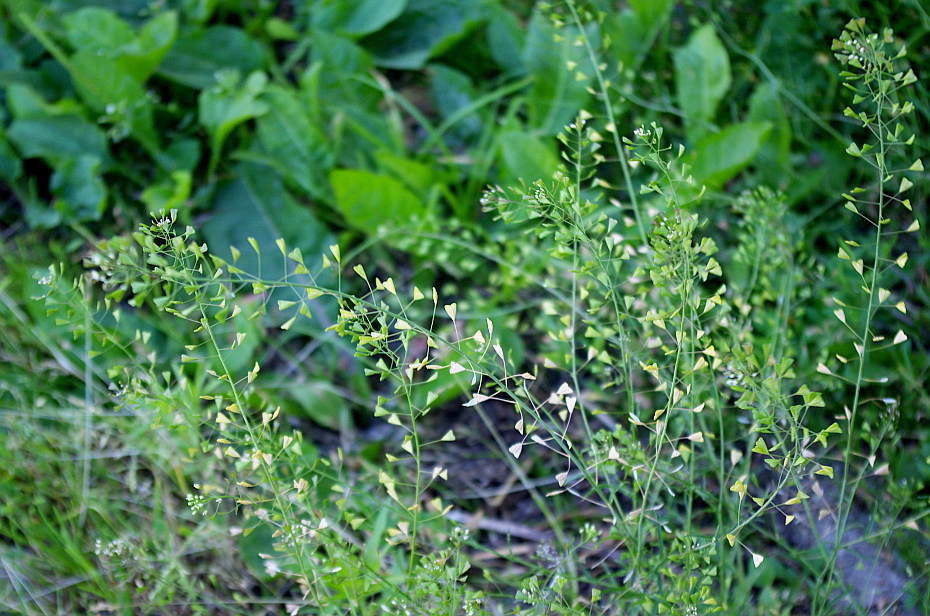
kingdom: Plantae
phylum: Tracheophyta
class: Magnoliopsida
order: Brassicales
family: Brassicaceae
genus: Capsella
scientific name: Capsella bursa-pastoris
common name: Shepherd's purse
